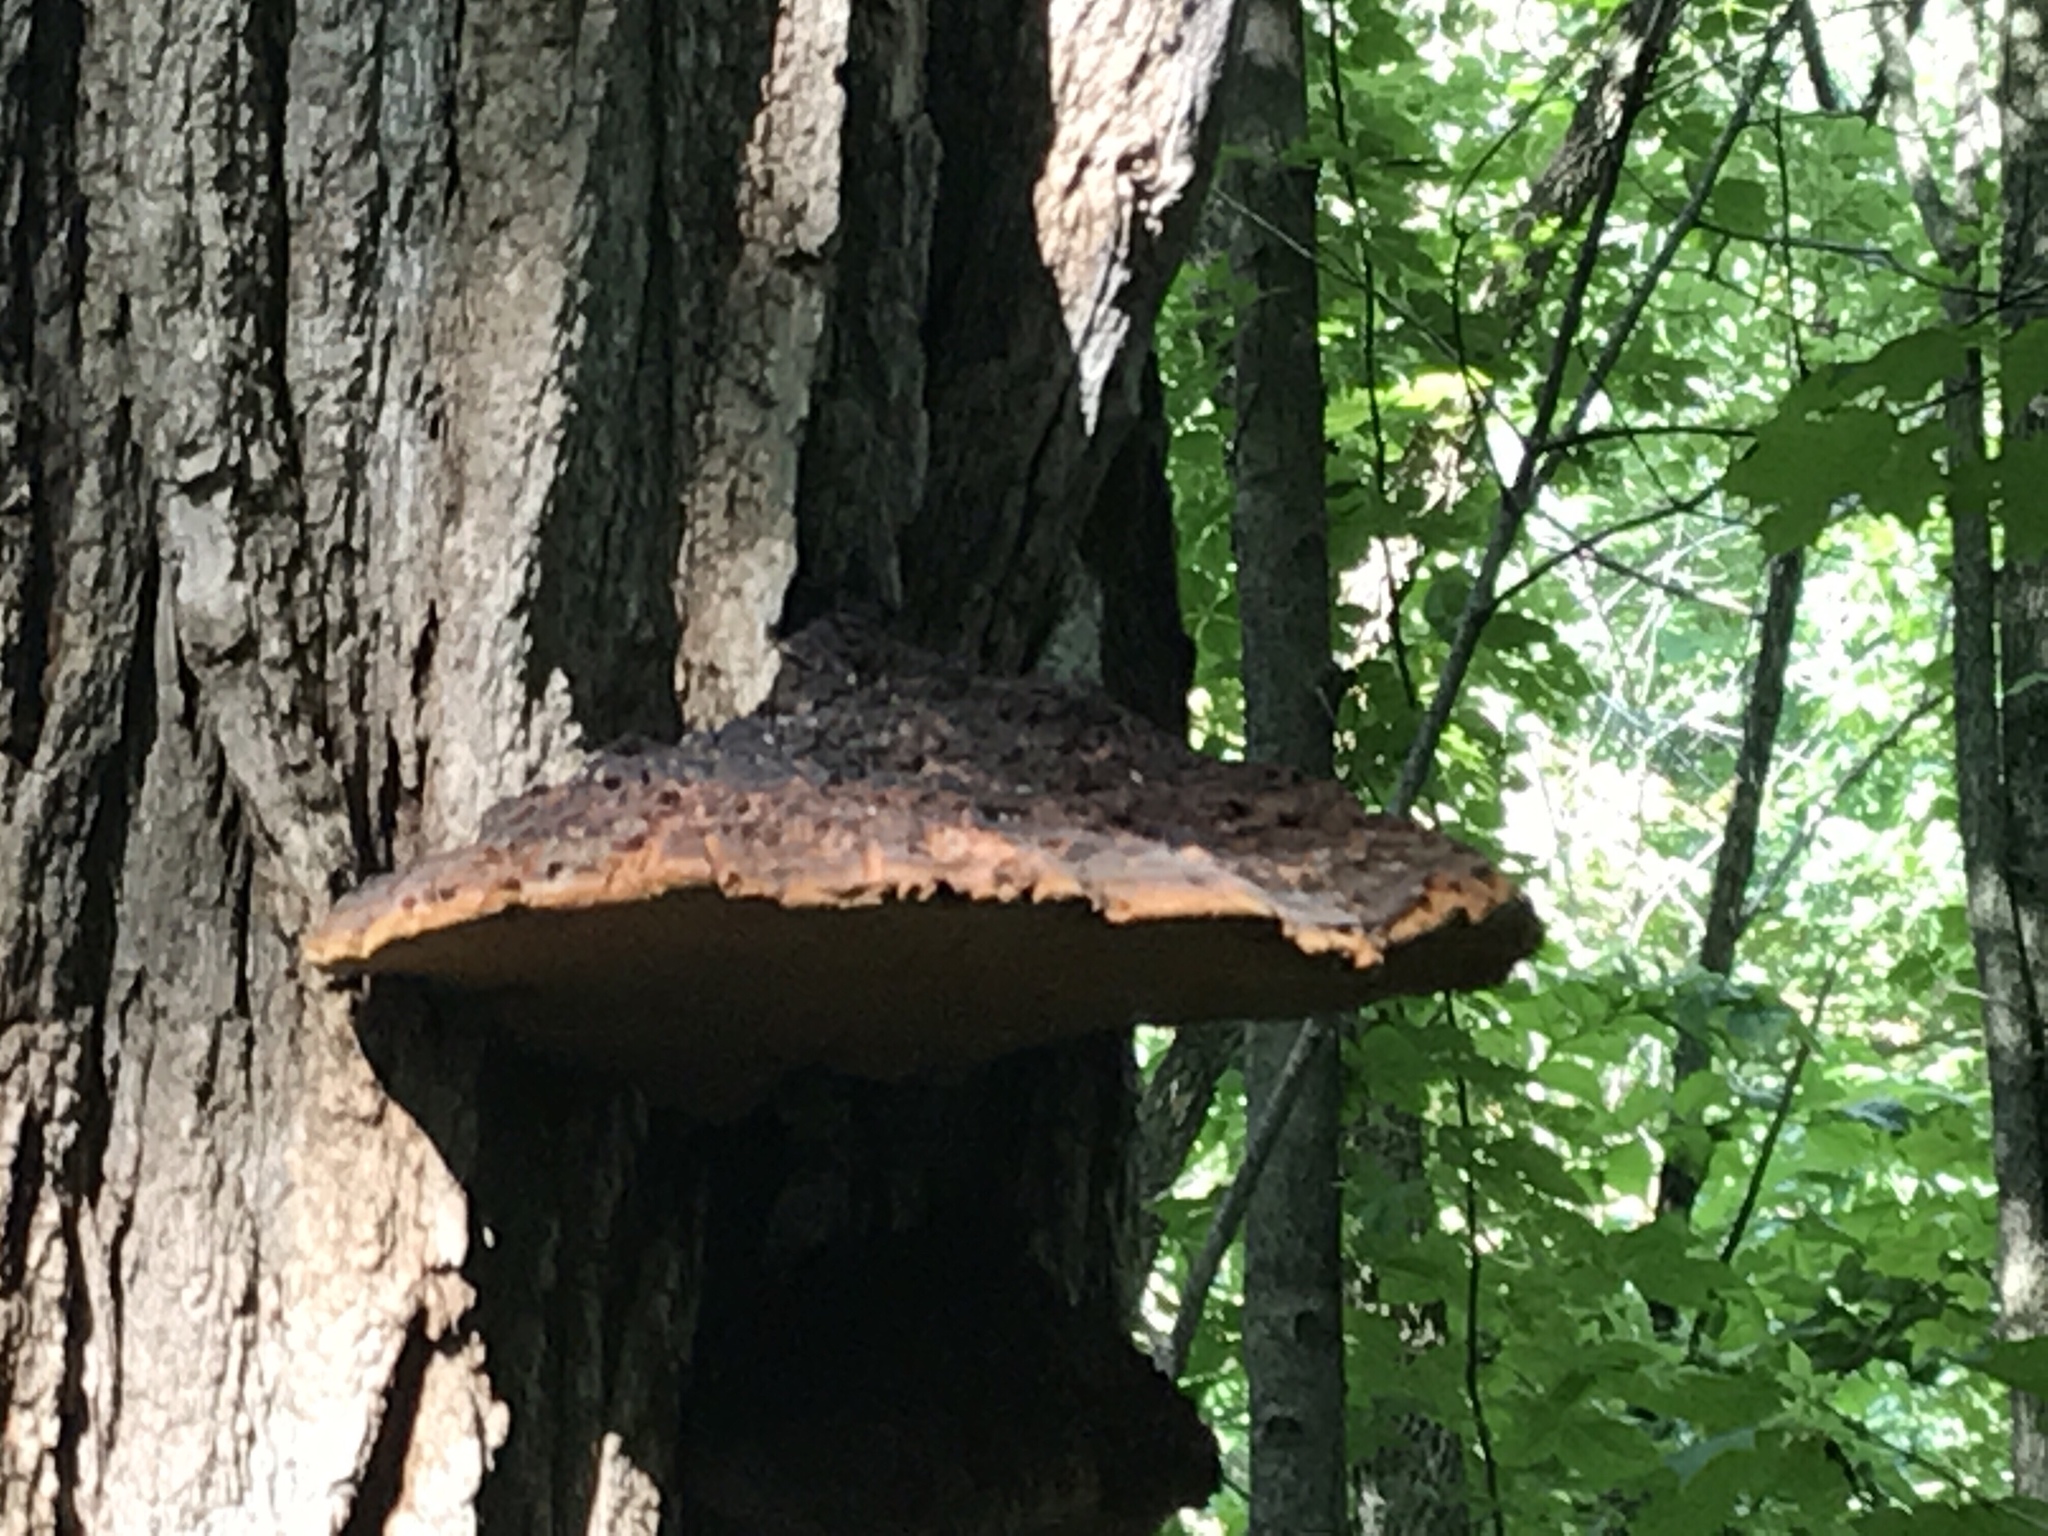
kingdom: Fungi
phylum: Basidiomycota
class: Agaricomycetes
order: Hymenochaetales
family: Hymenochaetaceae
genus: Phellinus
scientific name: Phellinus robiniae
